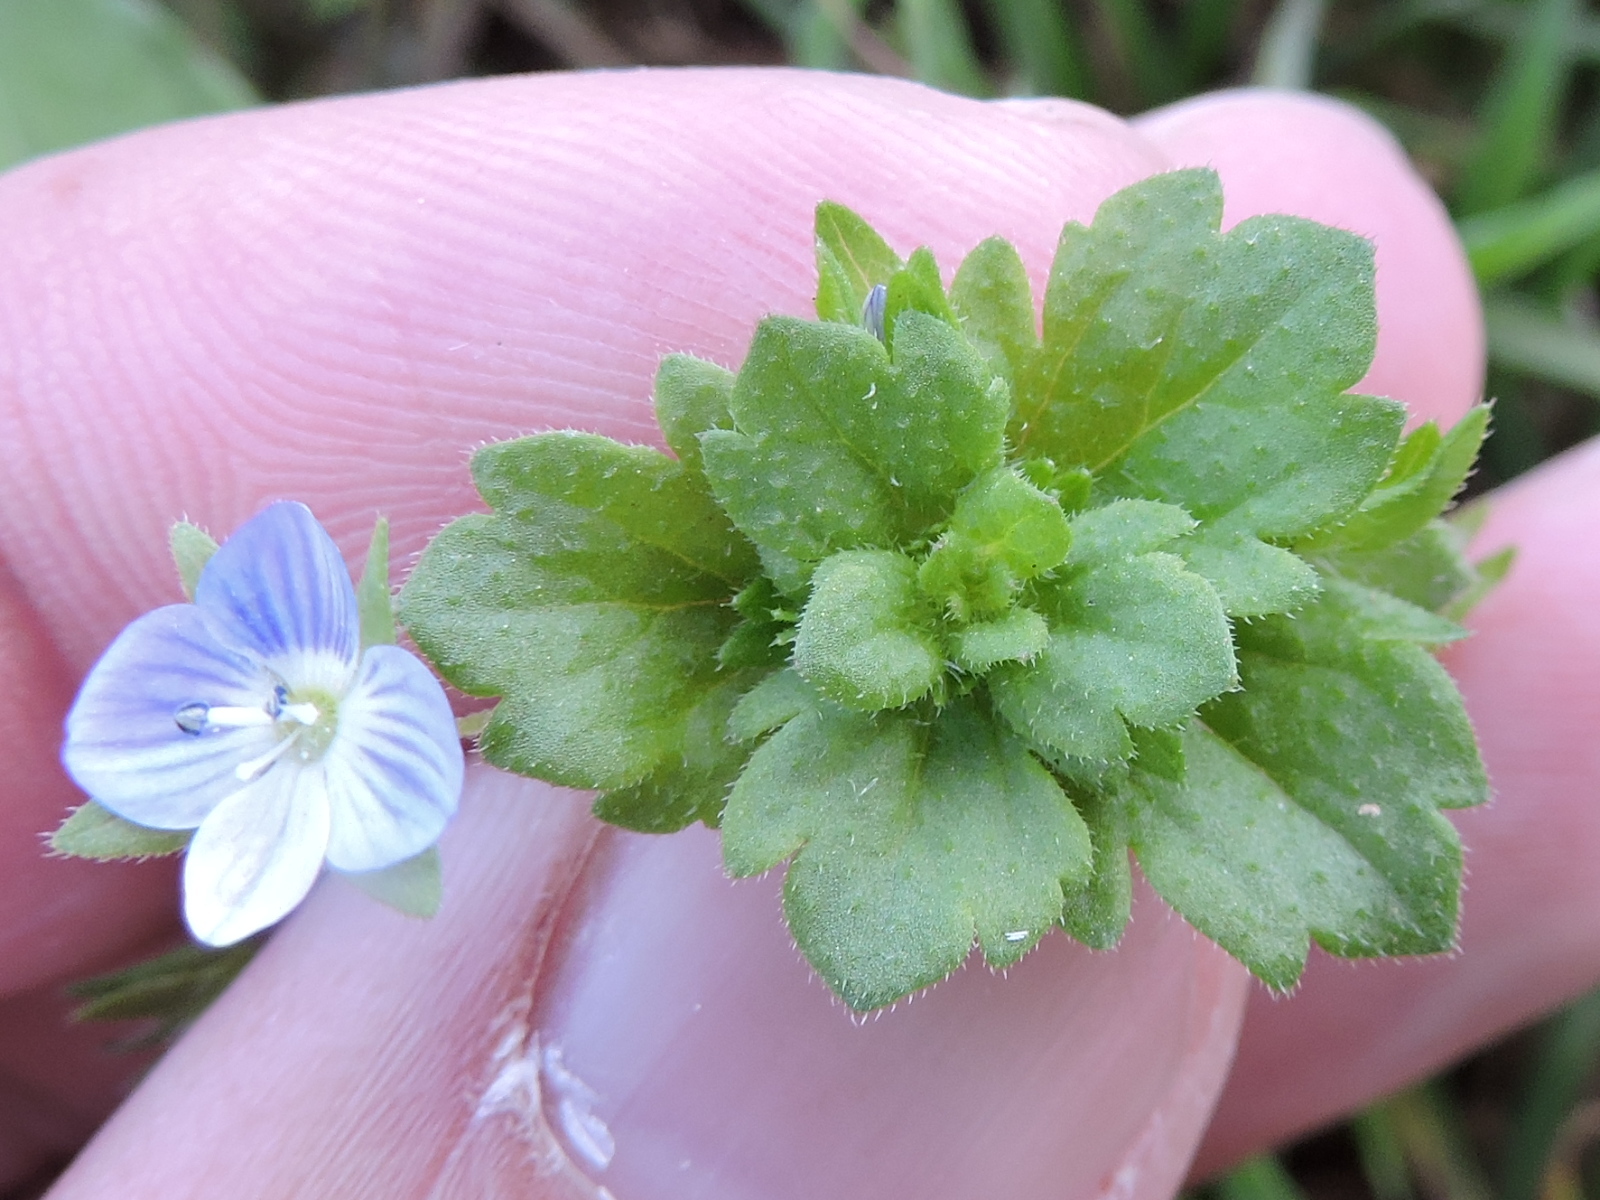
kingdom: Plantae
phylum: Tracheophyta
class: Magnoliopsida
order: Lamiales
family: Plantaginaceae
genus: Veronica
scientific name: Veronica persica
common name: Common field-speedwell
